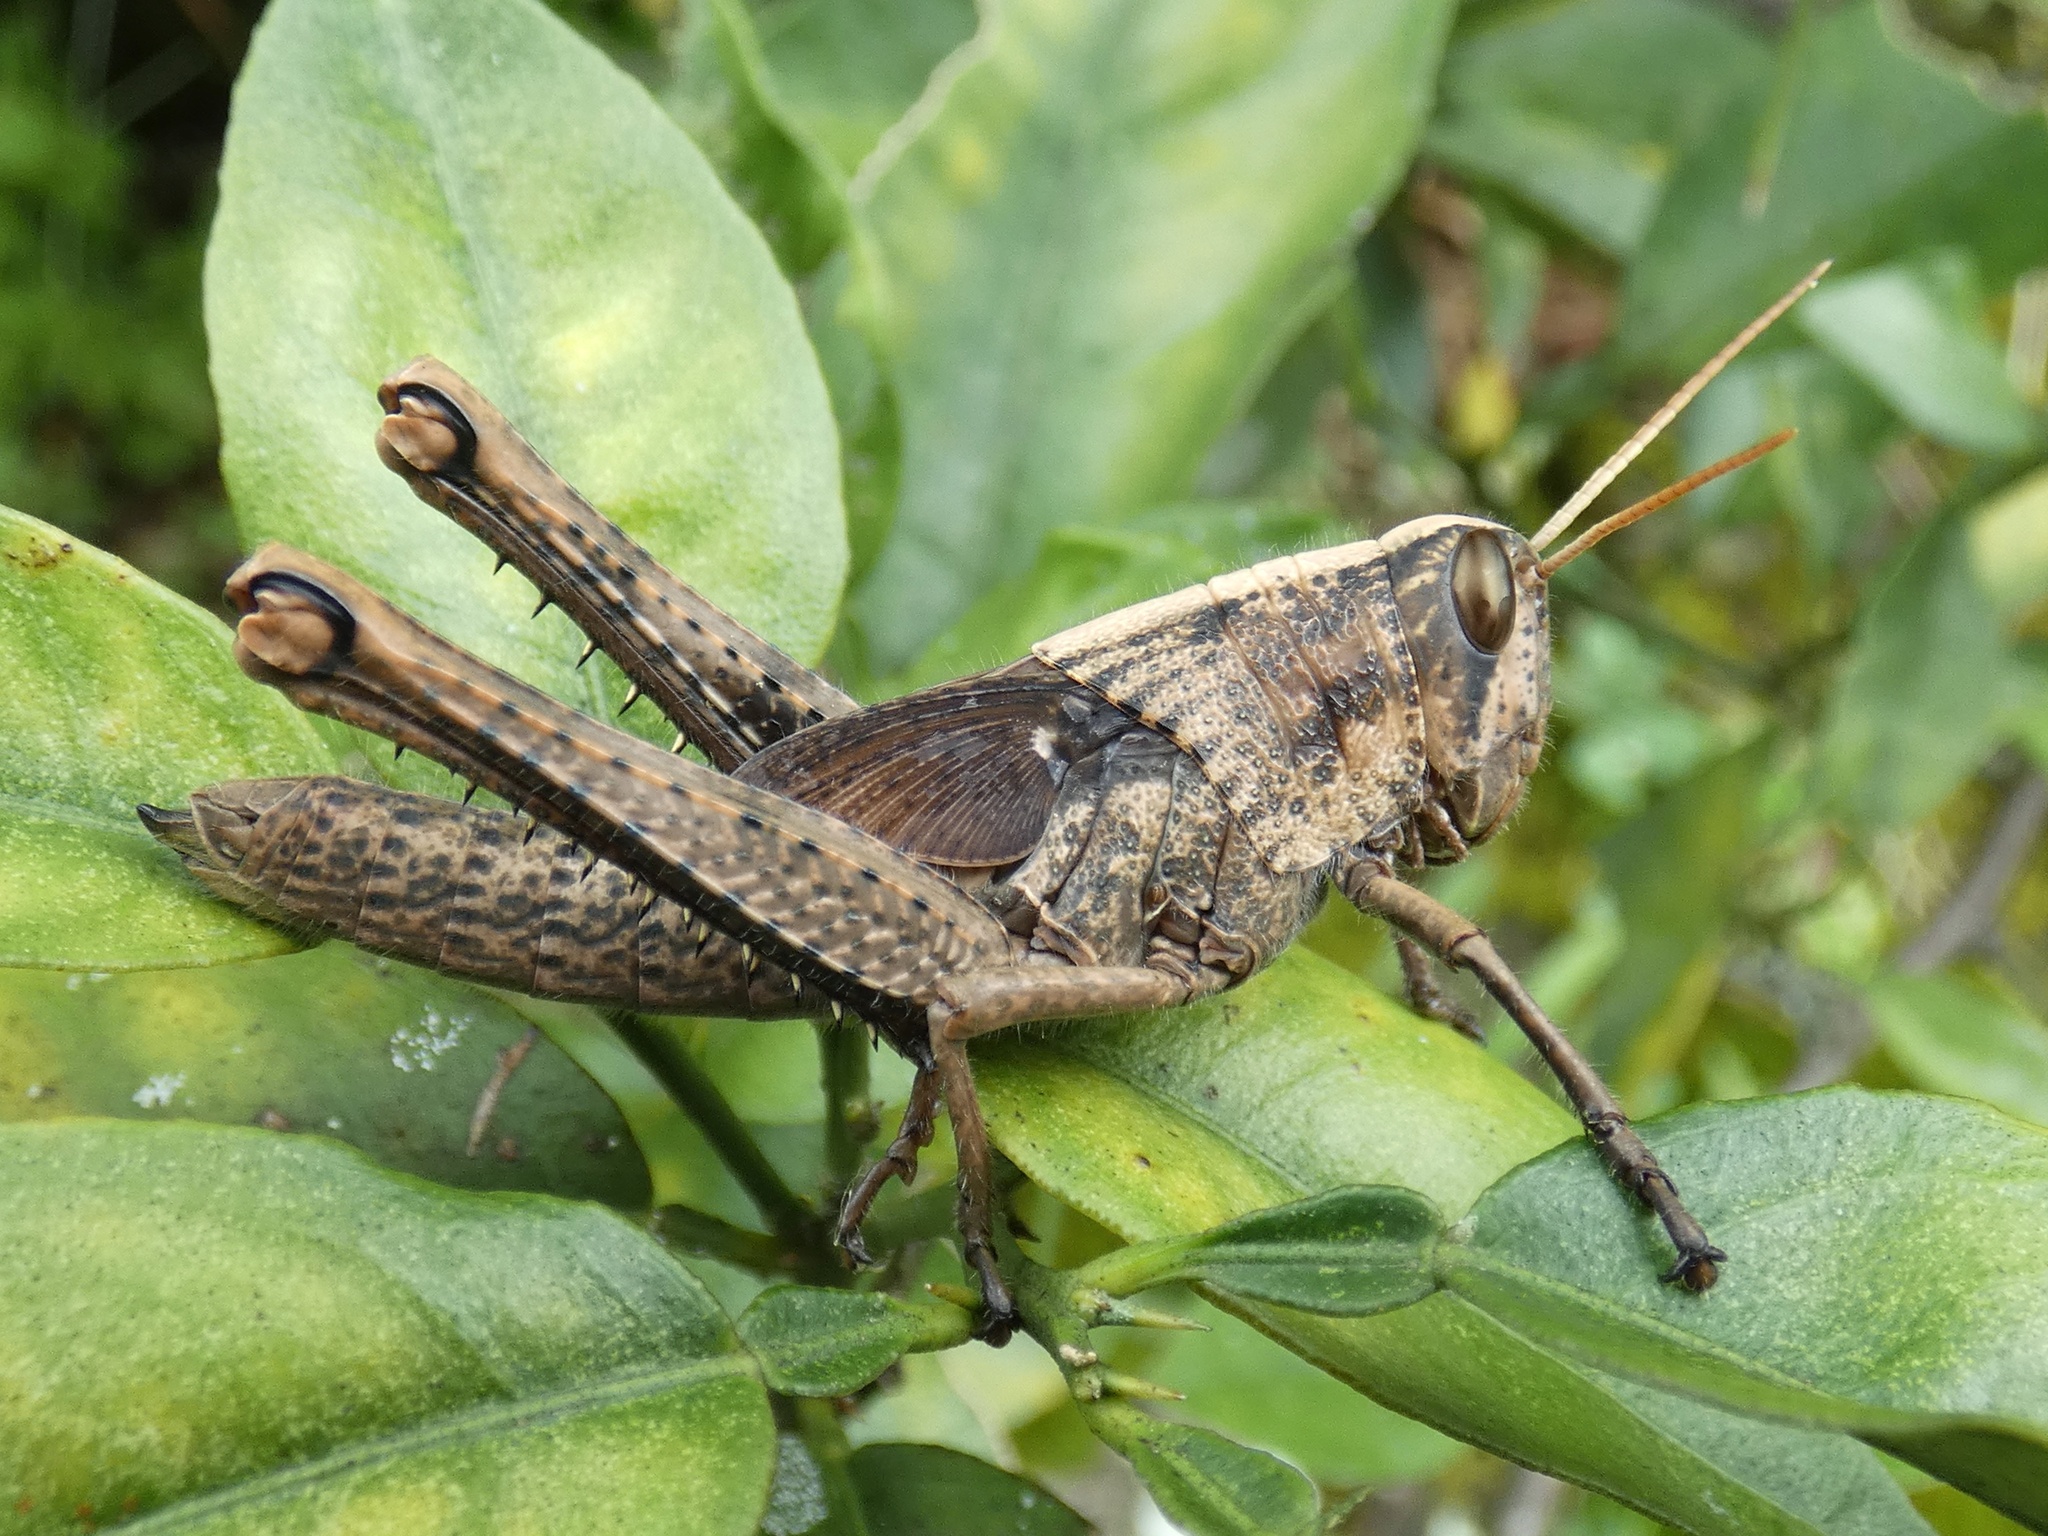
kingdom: Animalia
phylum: Arthropoda
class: Insecta
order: Orthoptera
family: Acrididae
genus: Schistocerca
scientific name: Schistocerca nitens
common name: Vagrant grasshopper
